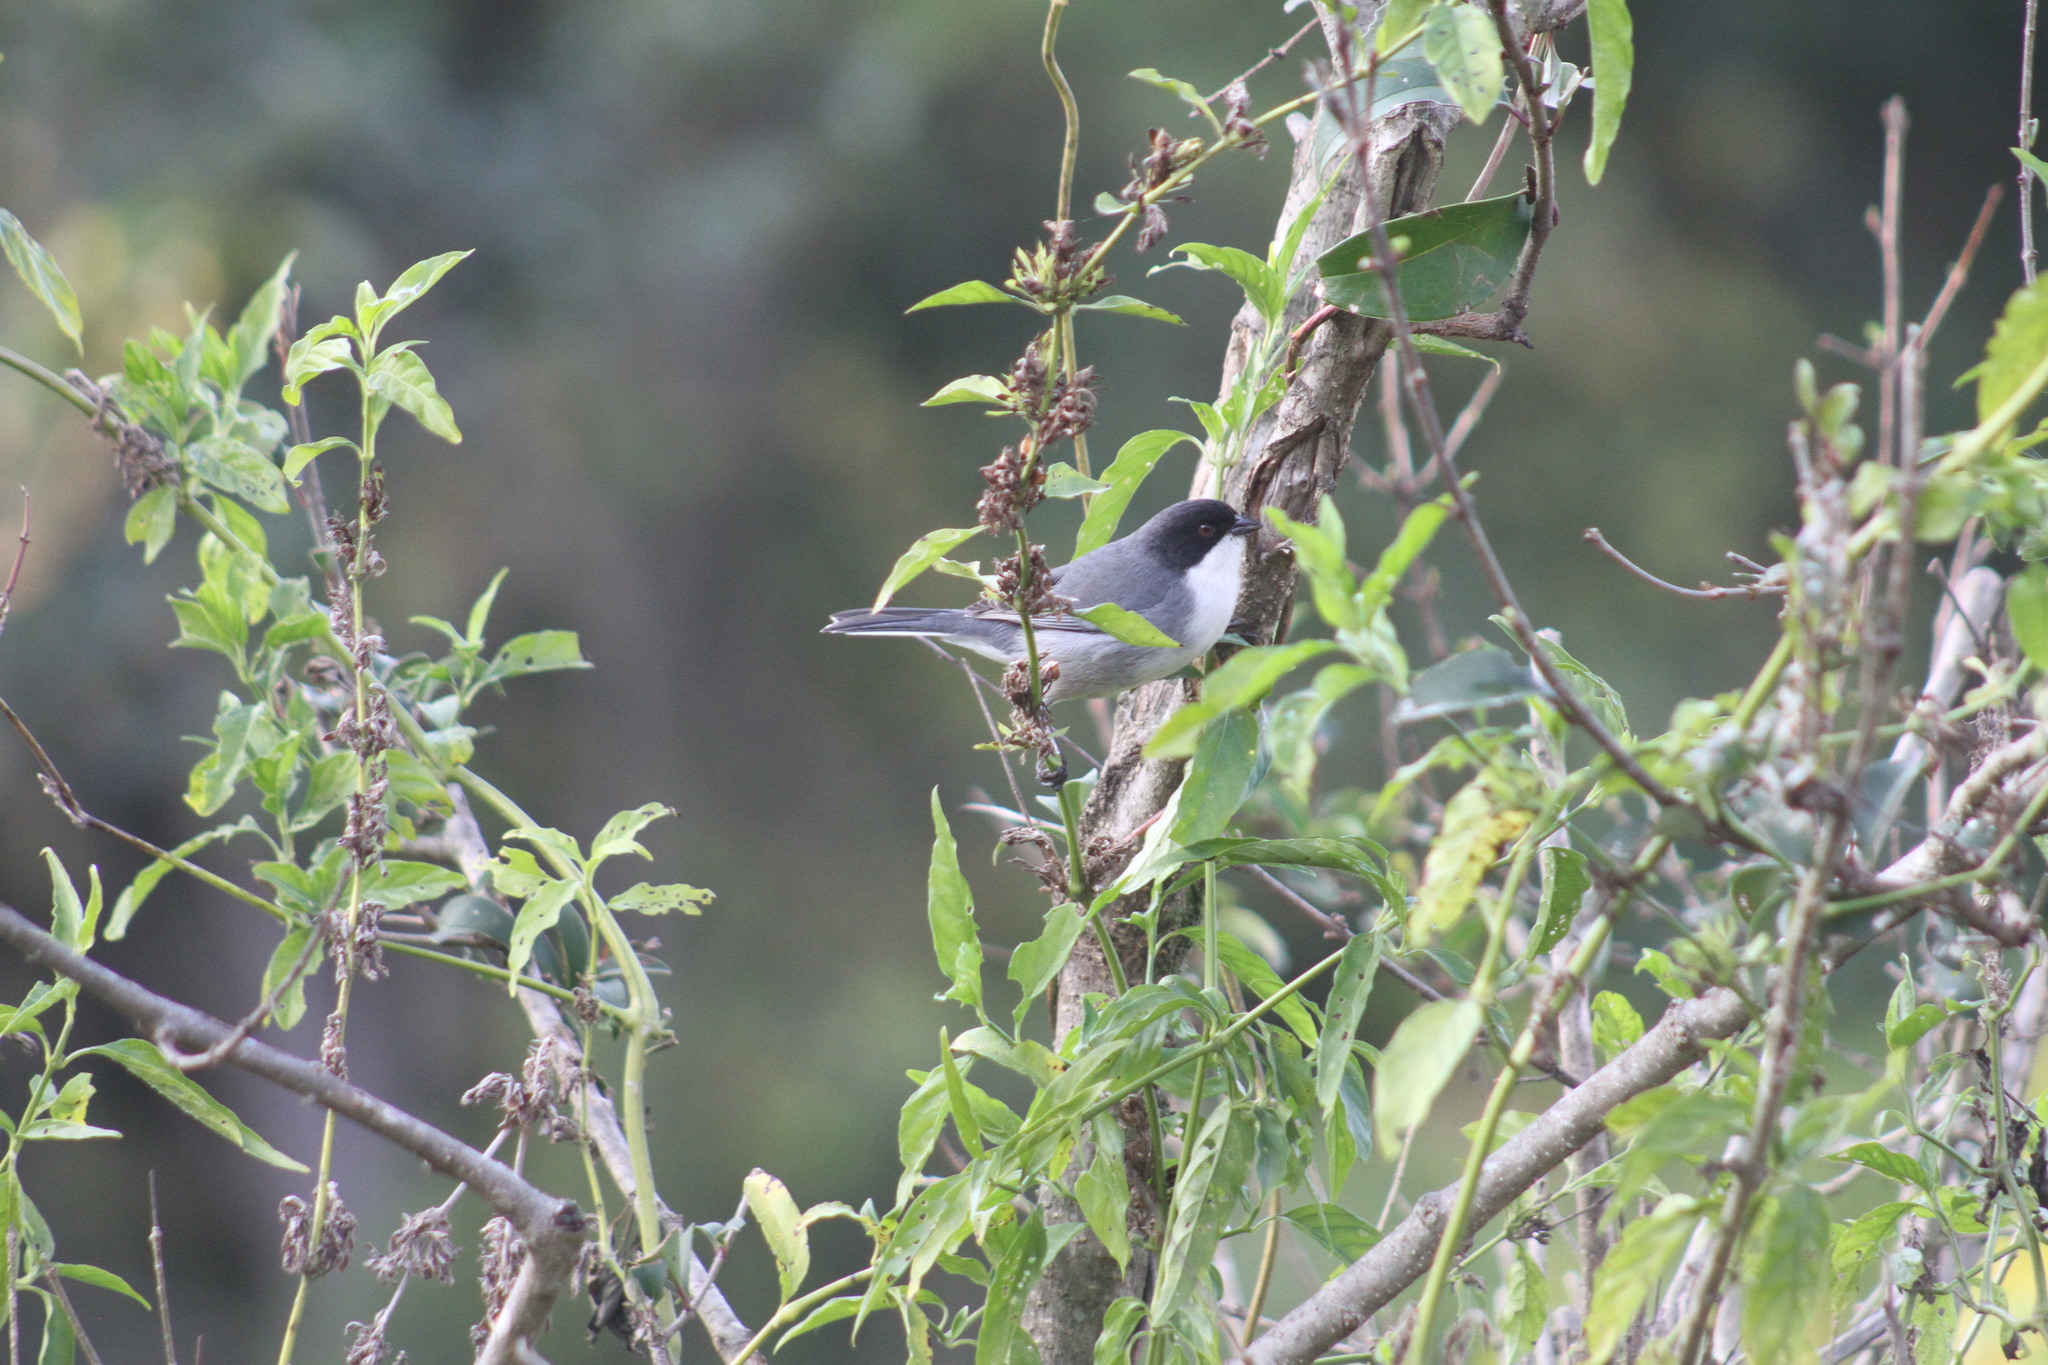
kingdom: Animalia
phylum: Chordata
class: Aves
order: Passeriformes
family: Thraupidae
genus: Microspingus
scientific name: Microspingus melanoleucus
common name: Black-capped warbling-finch
